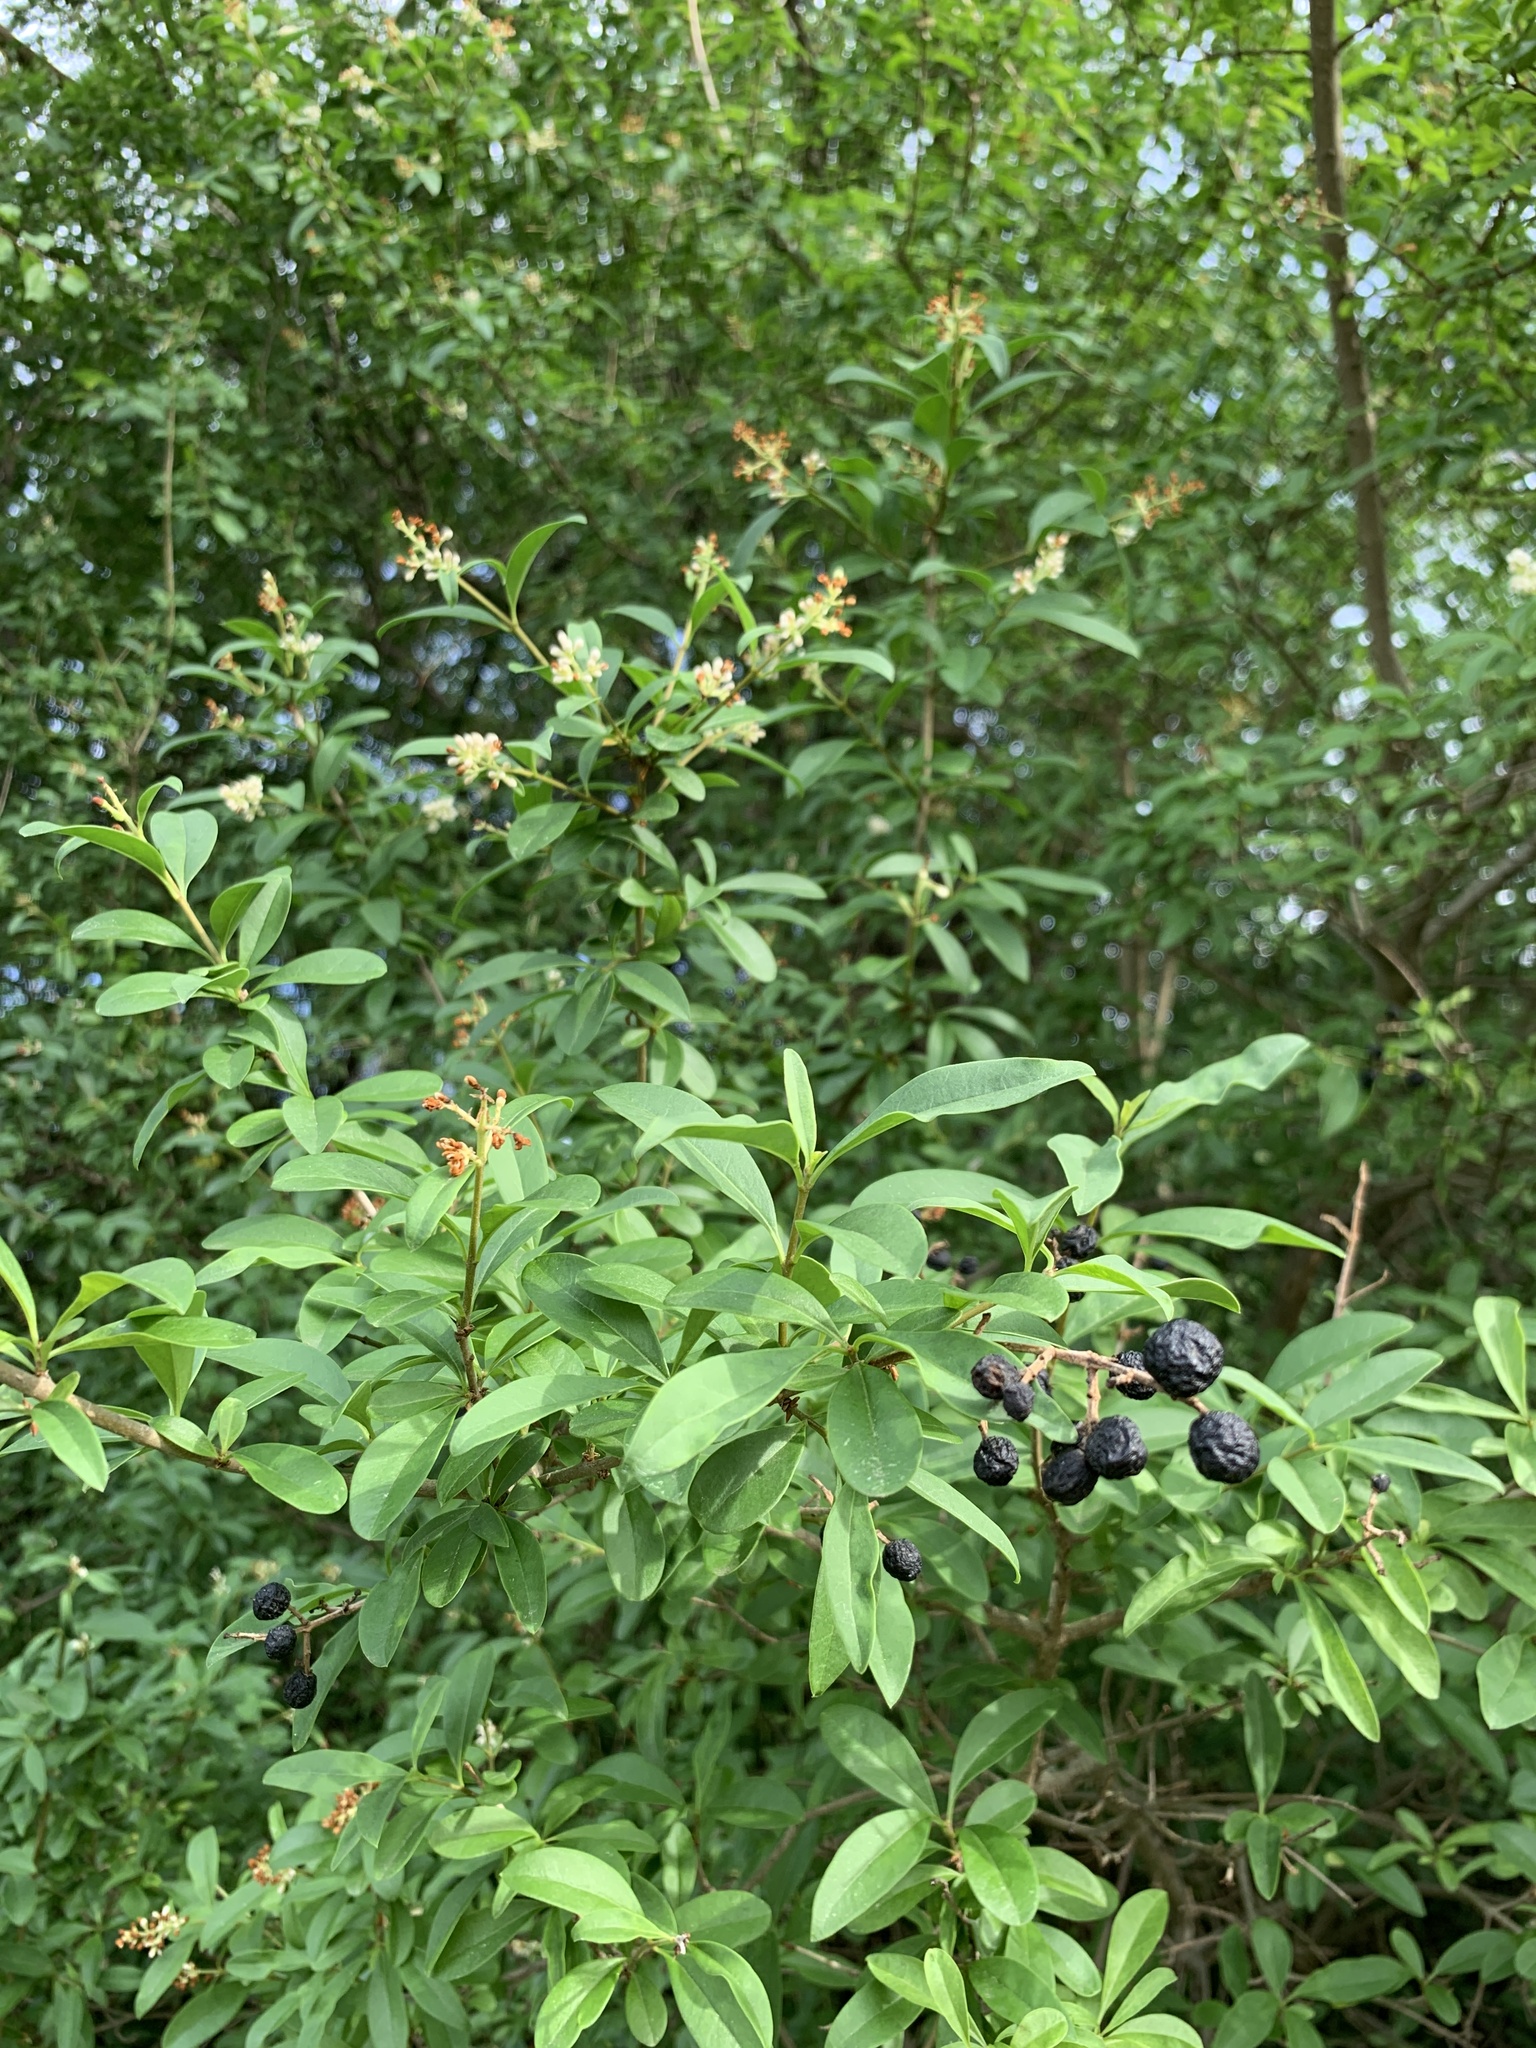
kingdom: Plantae
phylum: Tracheophyta
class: Magnoliopsida
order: Lamiales
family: Oleaceae
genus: Ligustrum
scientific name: Ligustrum vulgare
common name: Wild privet
